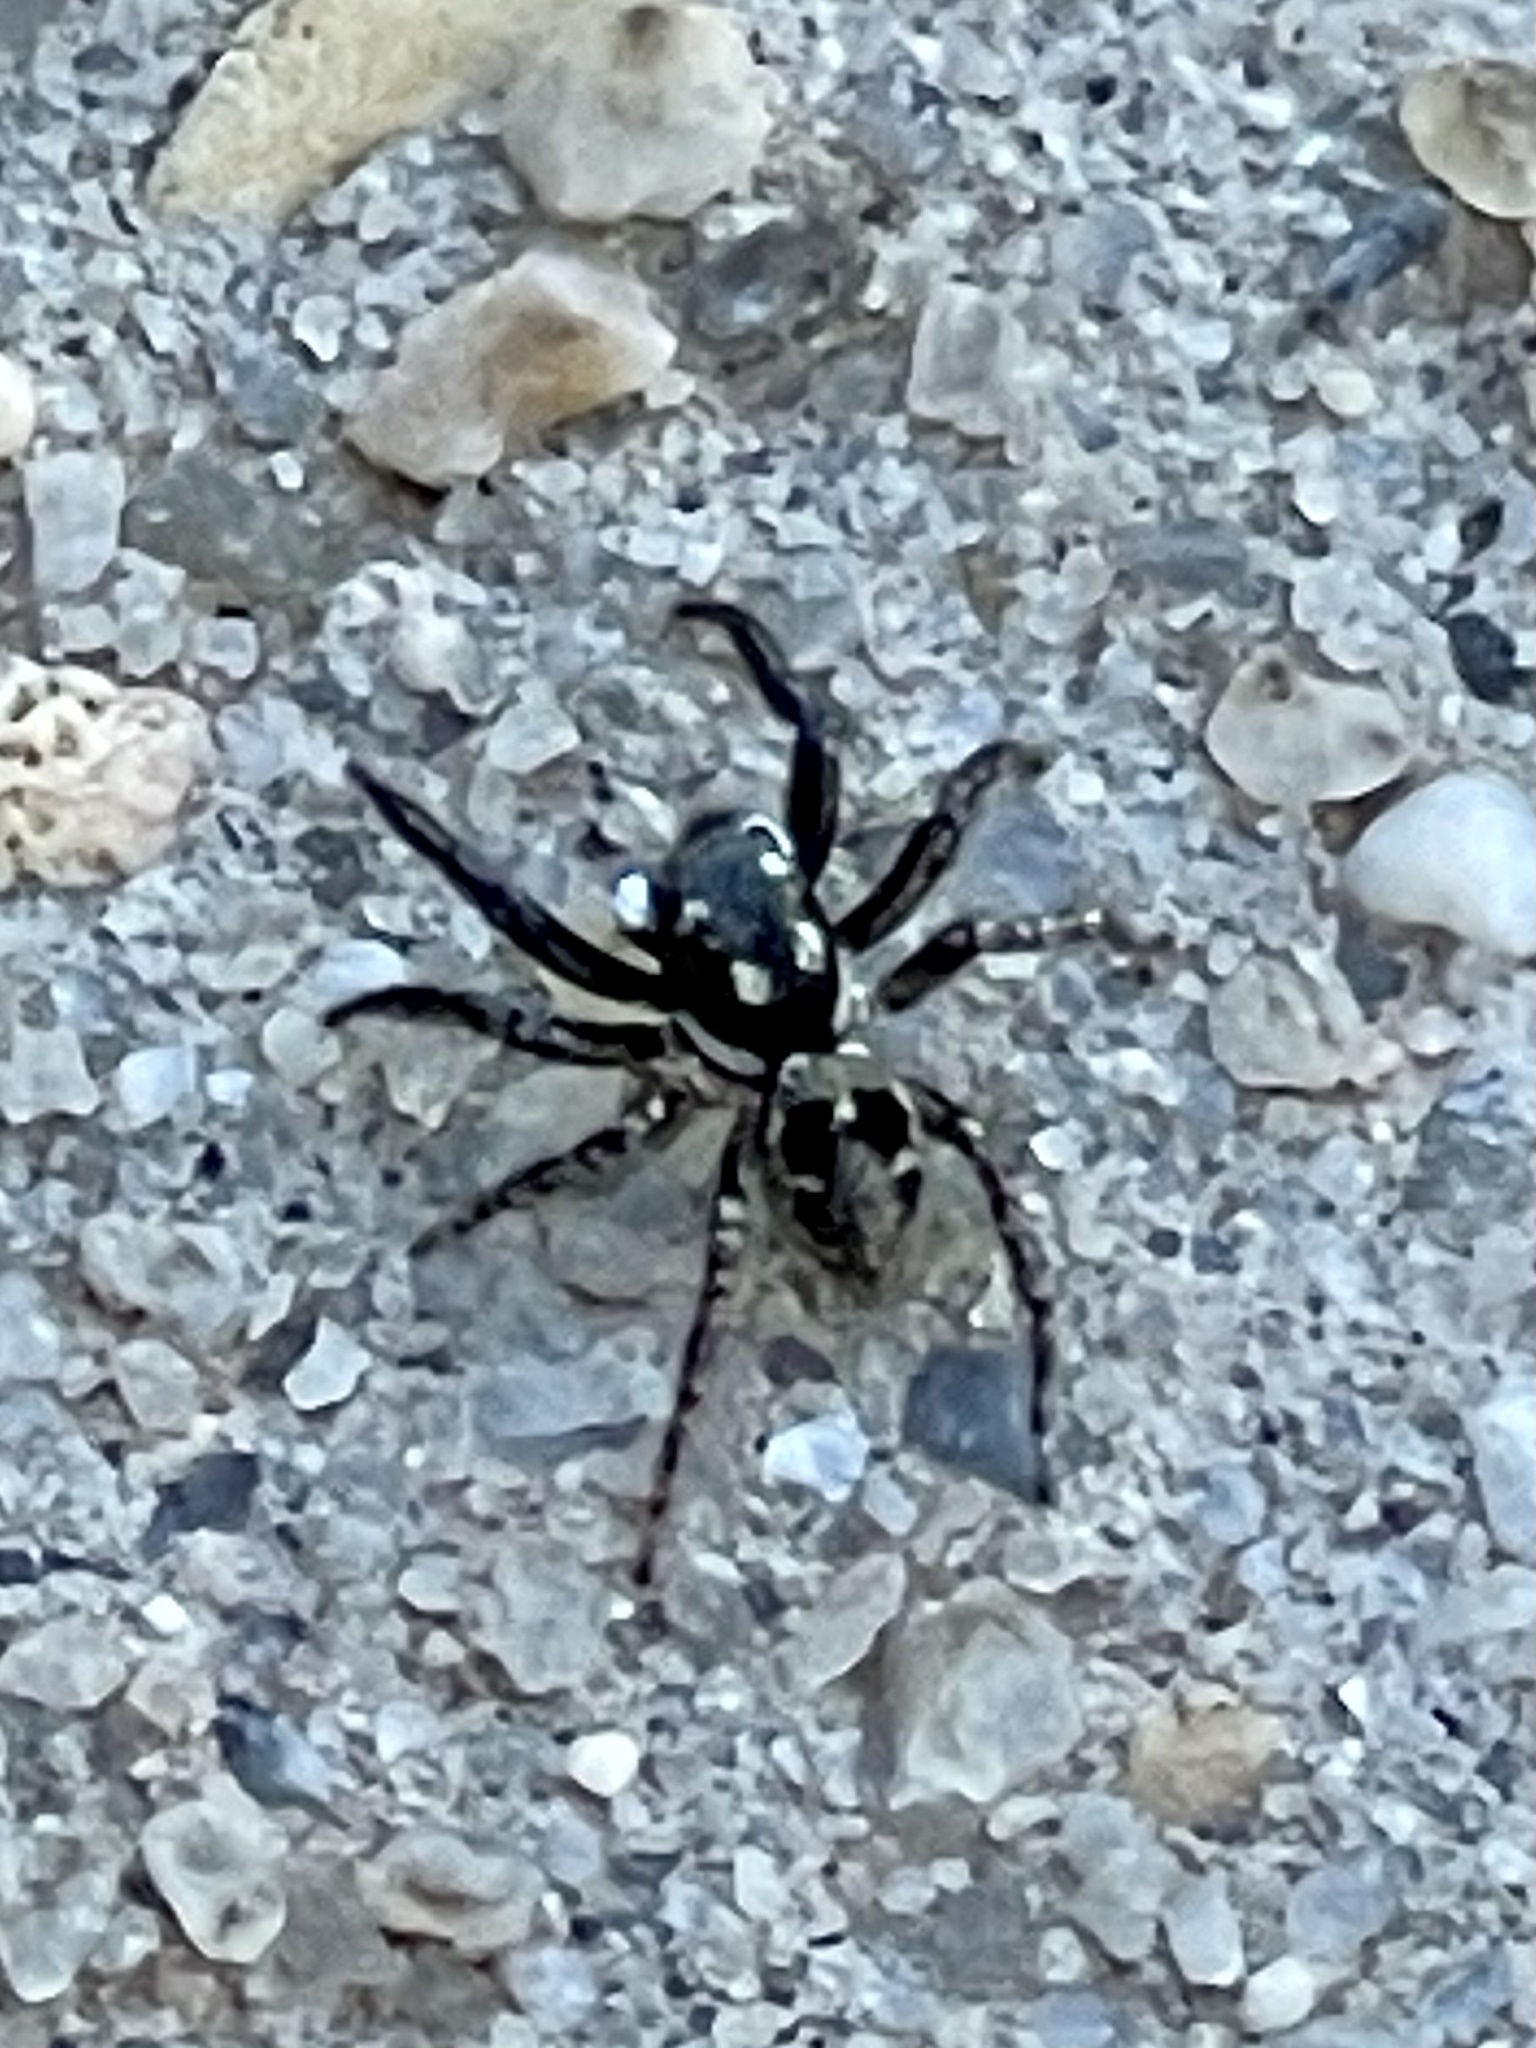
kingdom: Animalia
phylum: Arthropoda
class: Arachnida
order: Araneae
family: Salticidae
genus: Anasaitis
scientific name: Anasaitis canosa
